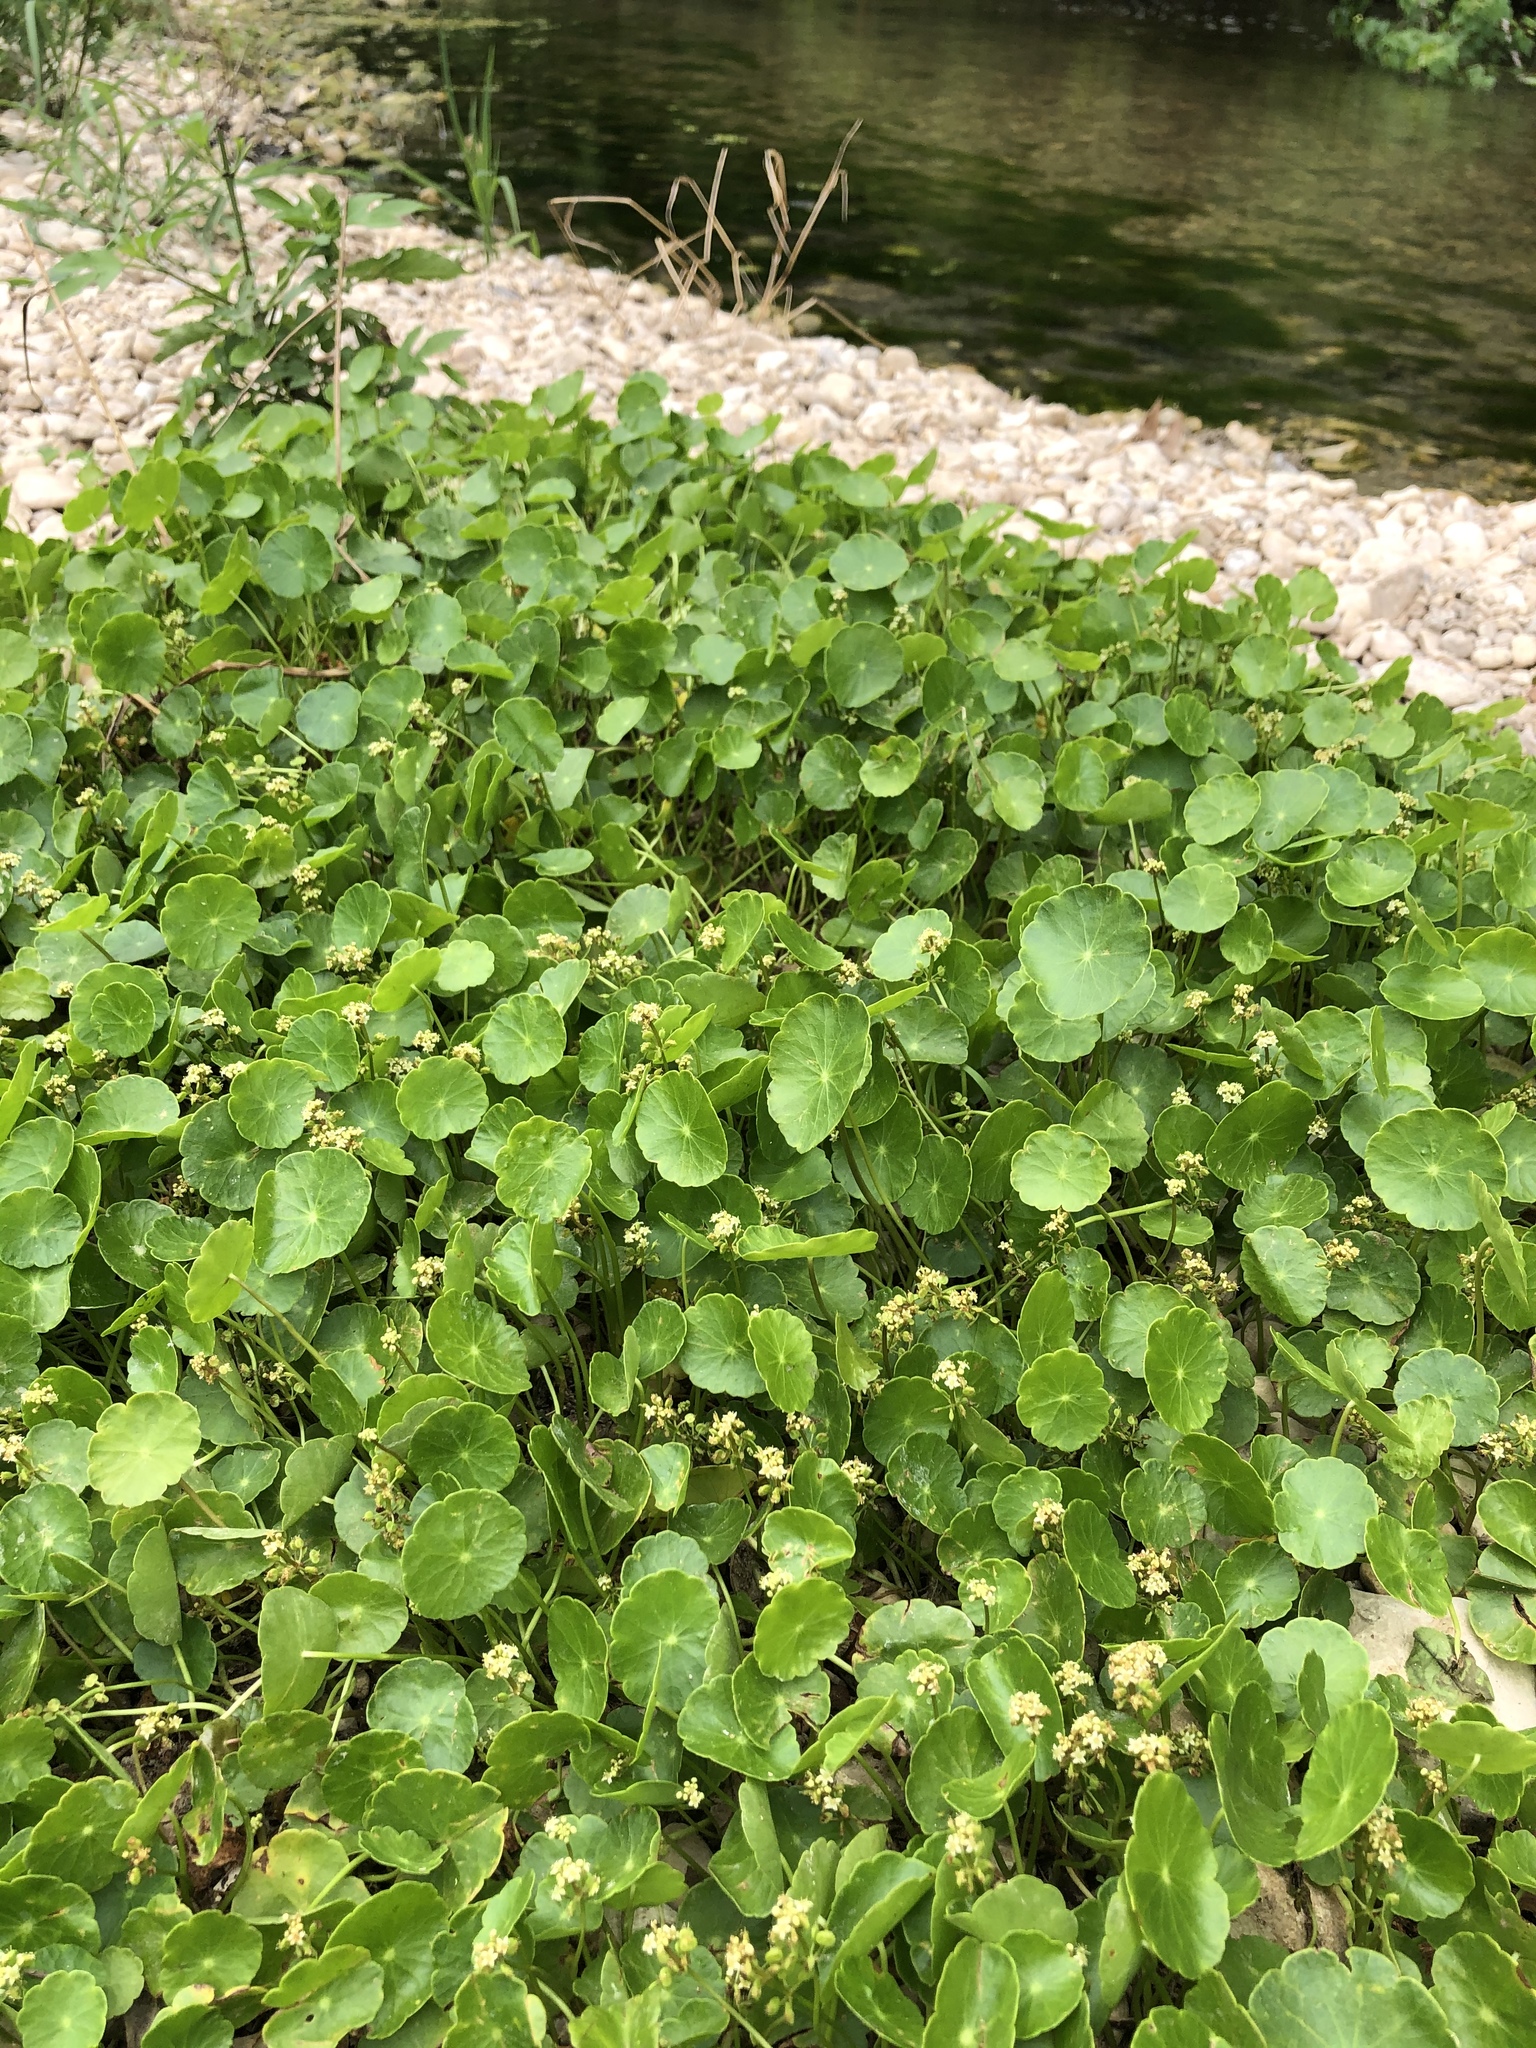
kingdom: Plantae
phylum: Tracheophyta
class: Magnoliopsida
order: Apiales
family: Araliaceae
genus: Hydrocotyle
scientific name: Hydrocotyle verticillata
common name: Whorled marshpennywort
